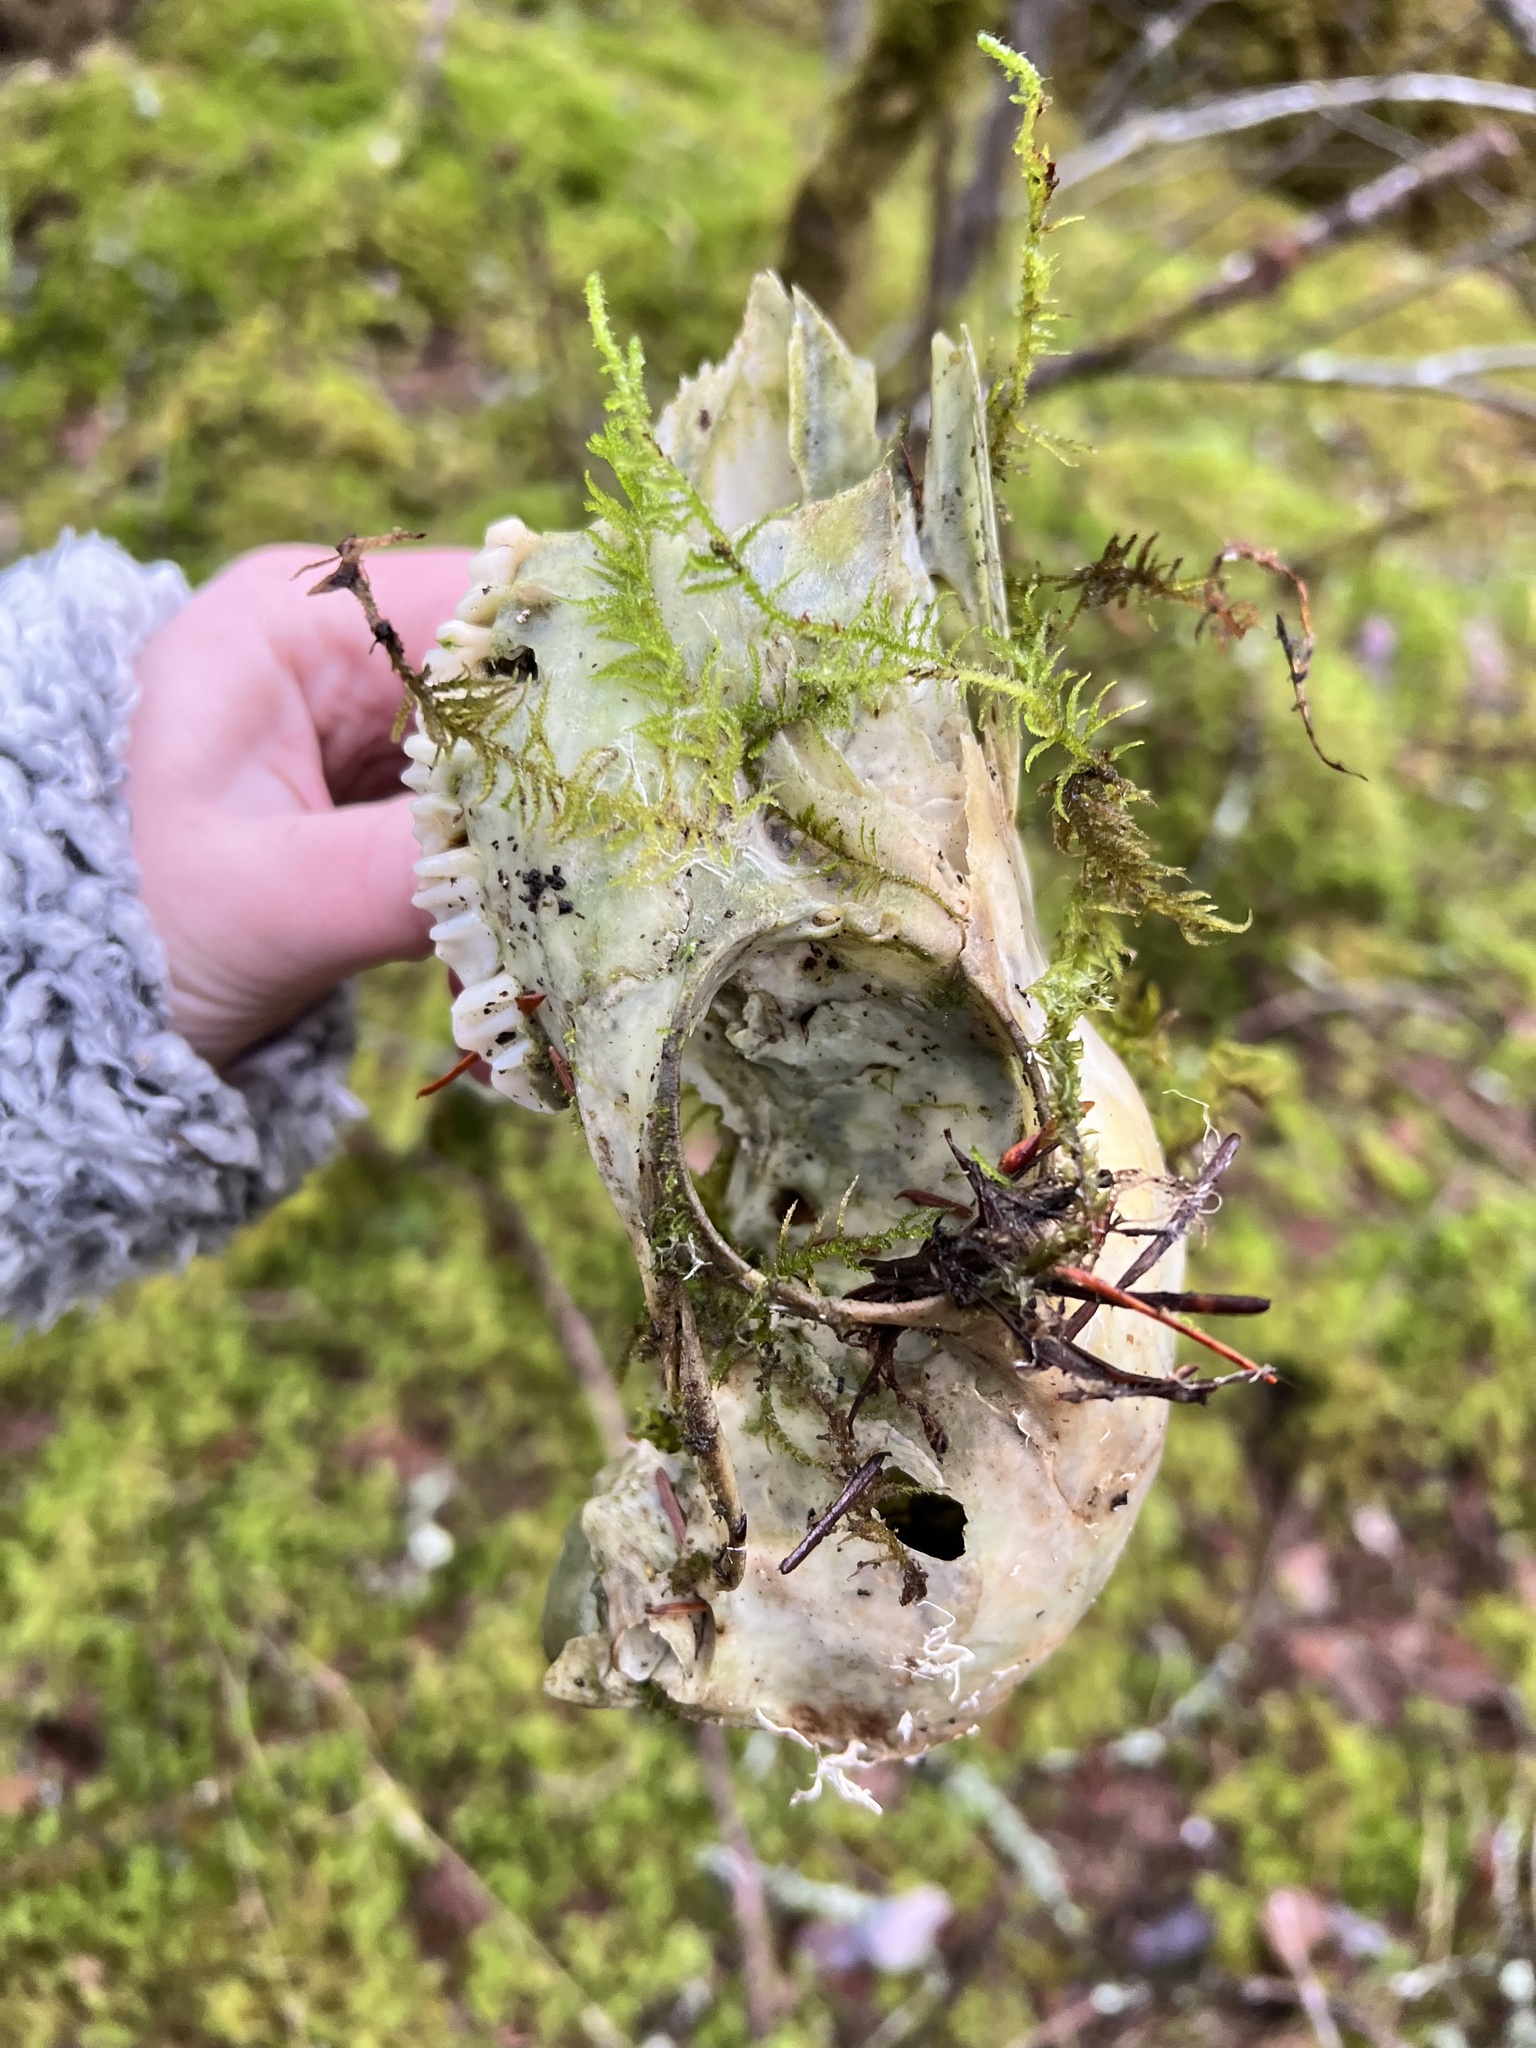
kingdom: Animalia
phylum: Chordata
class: Mammalia
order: Artiodactyla
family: Cervidae
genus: Odocoileus
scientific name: Odocoileus hemionus
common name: Mule deer
